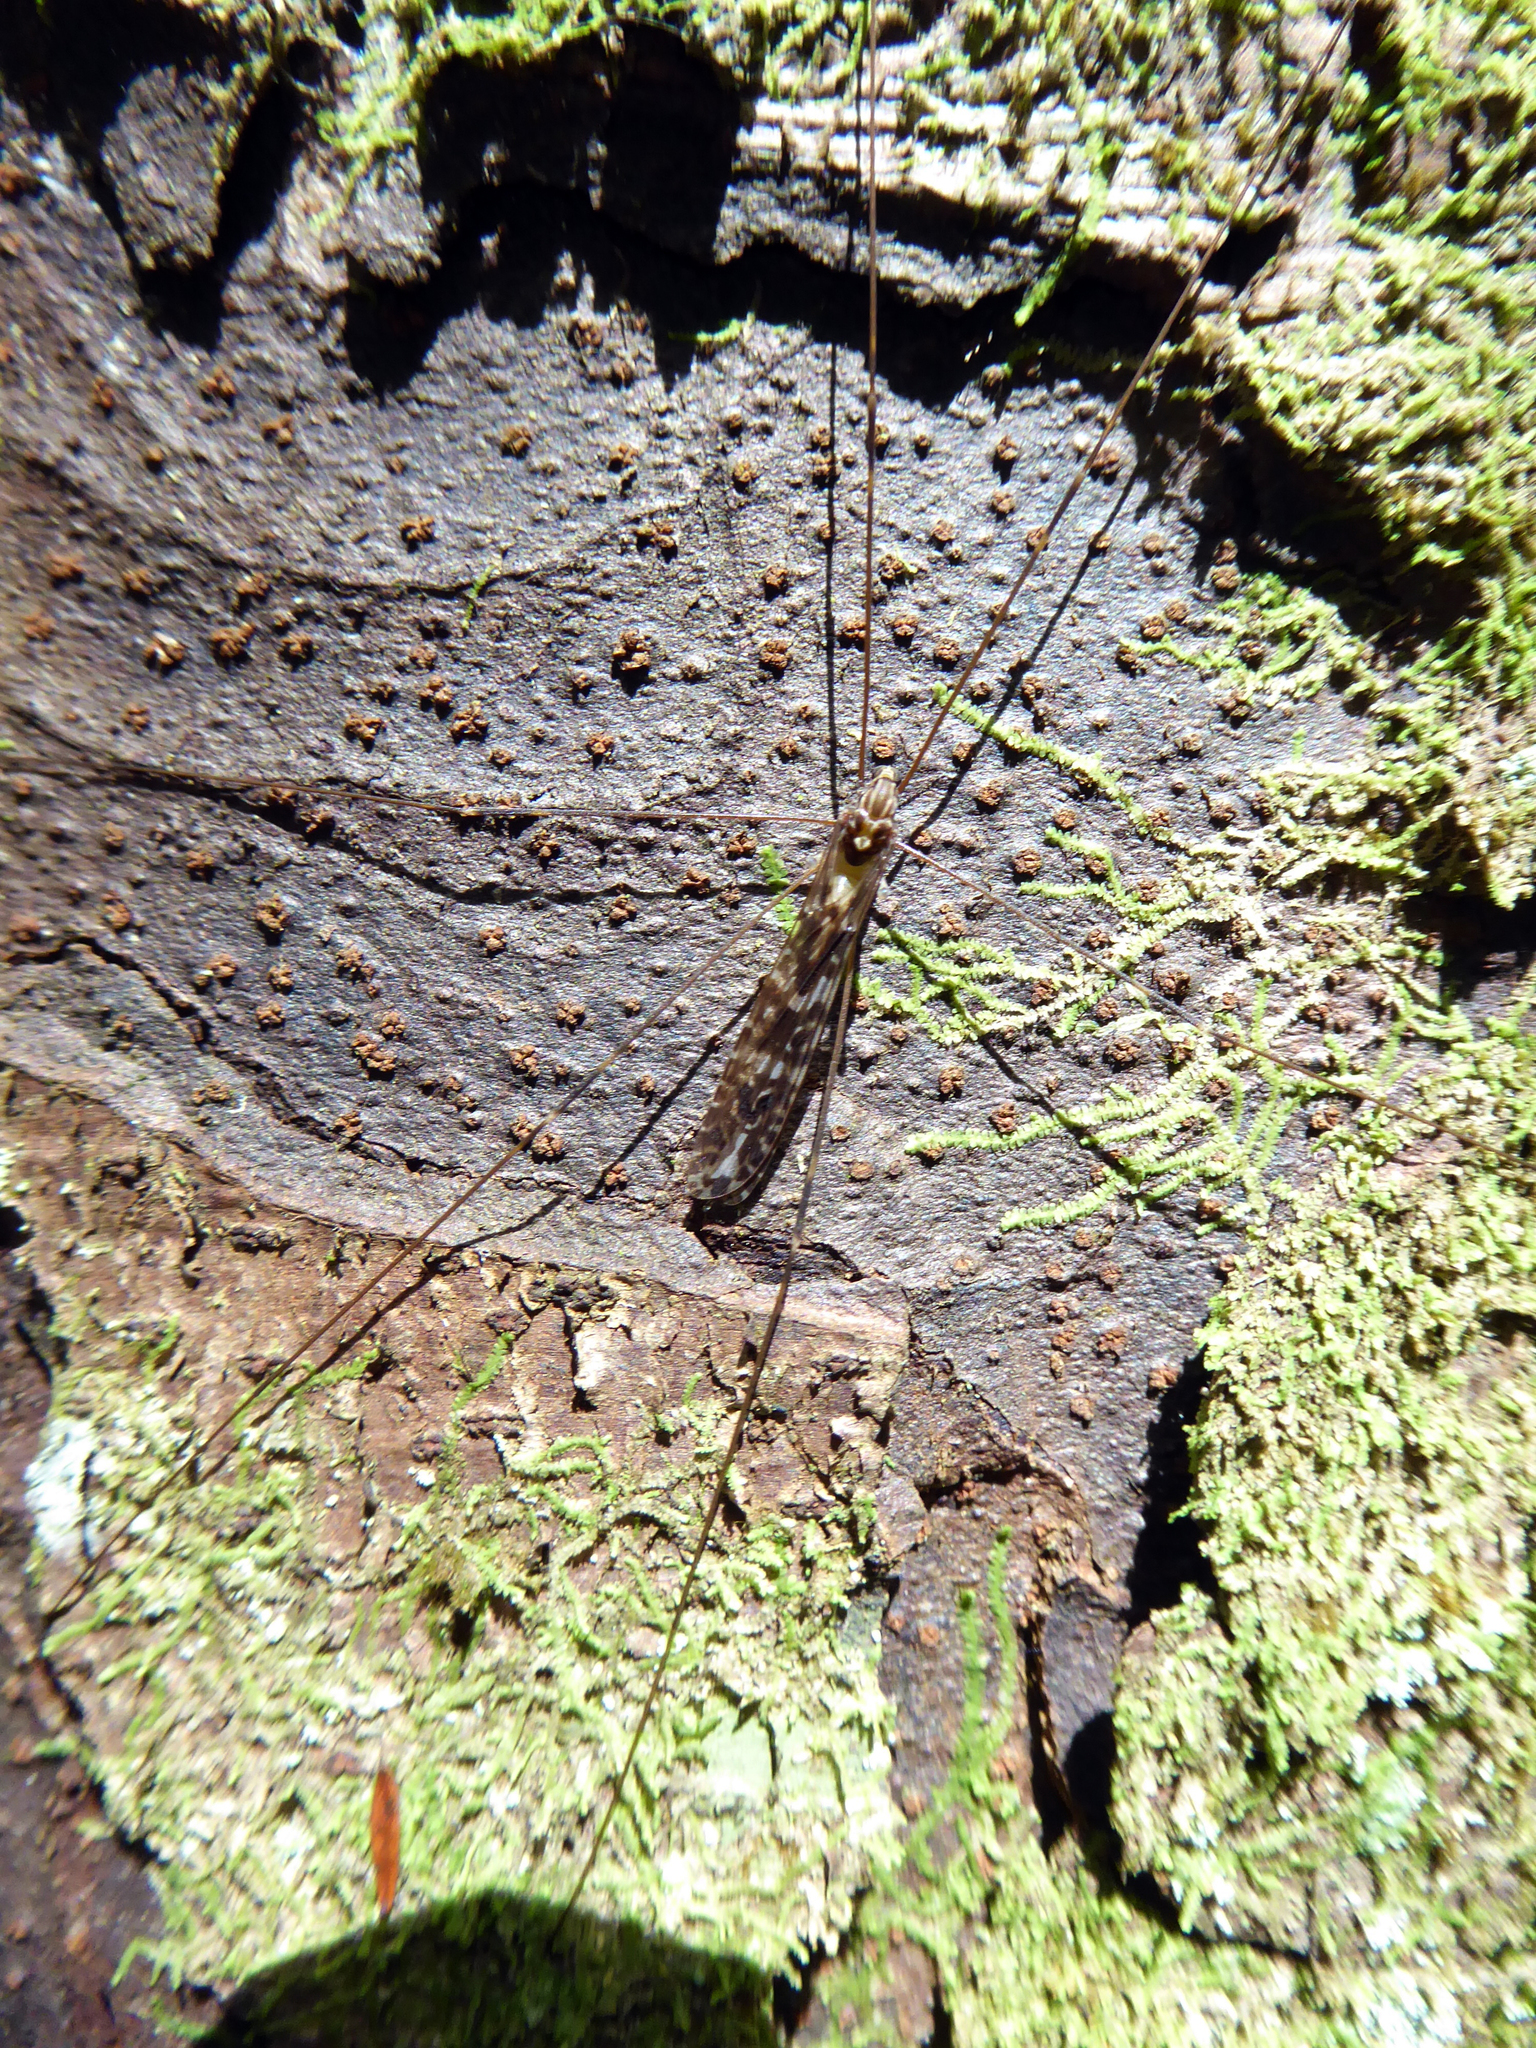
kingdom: Animalia
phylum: Arthropoda
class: Insecta
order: Diptera
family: Limoniidae
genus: Discobola
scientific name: Discobola dohrni
